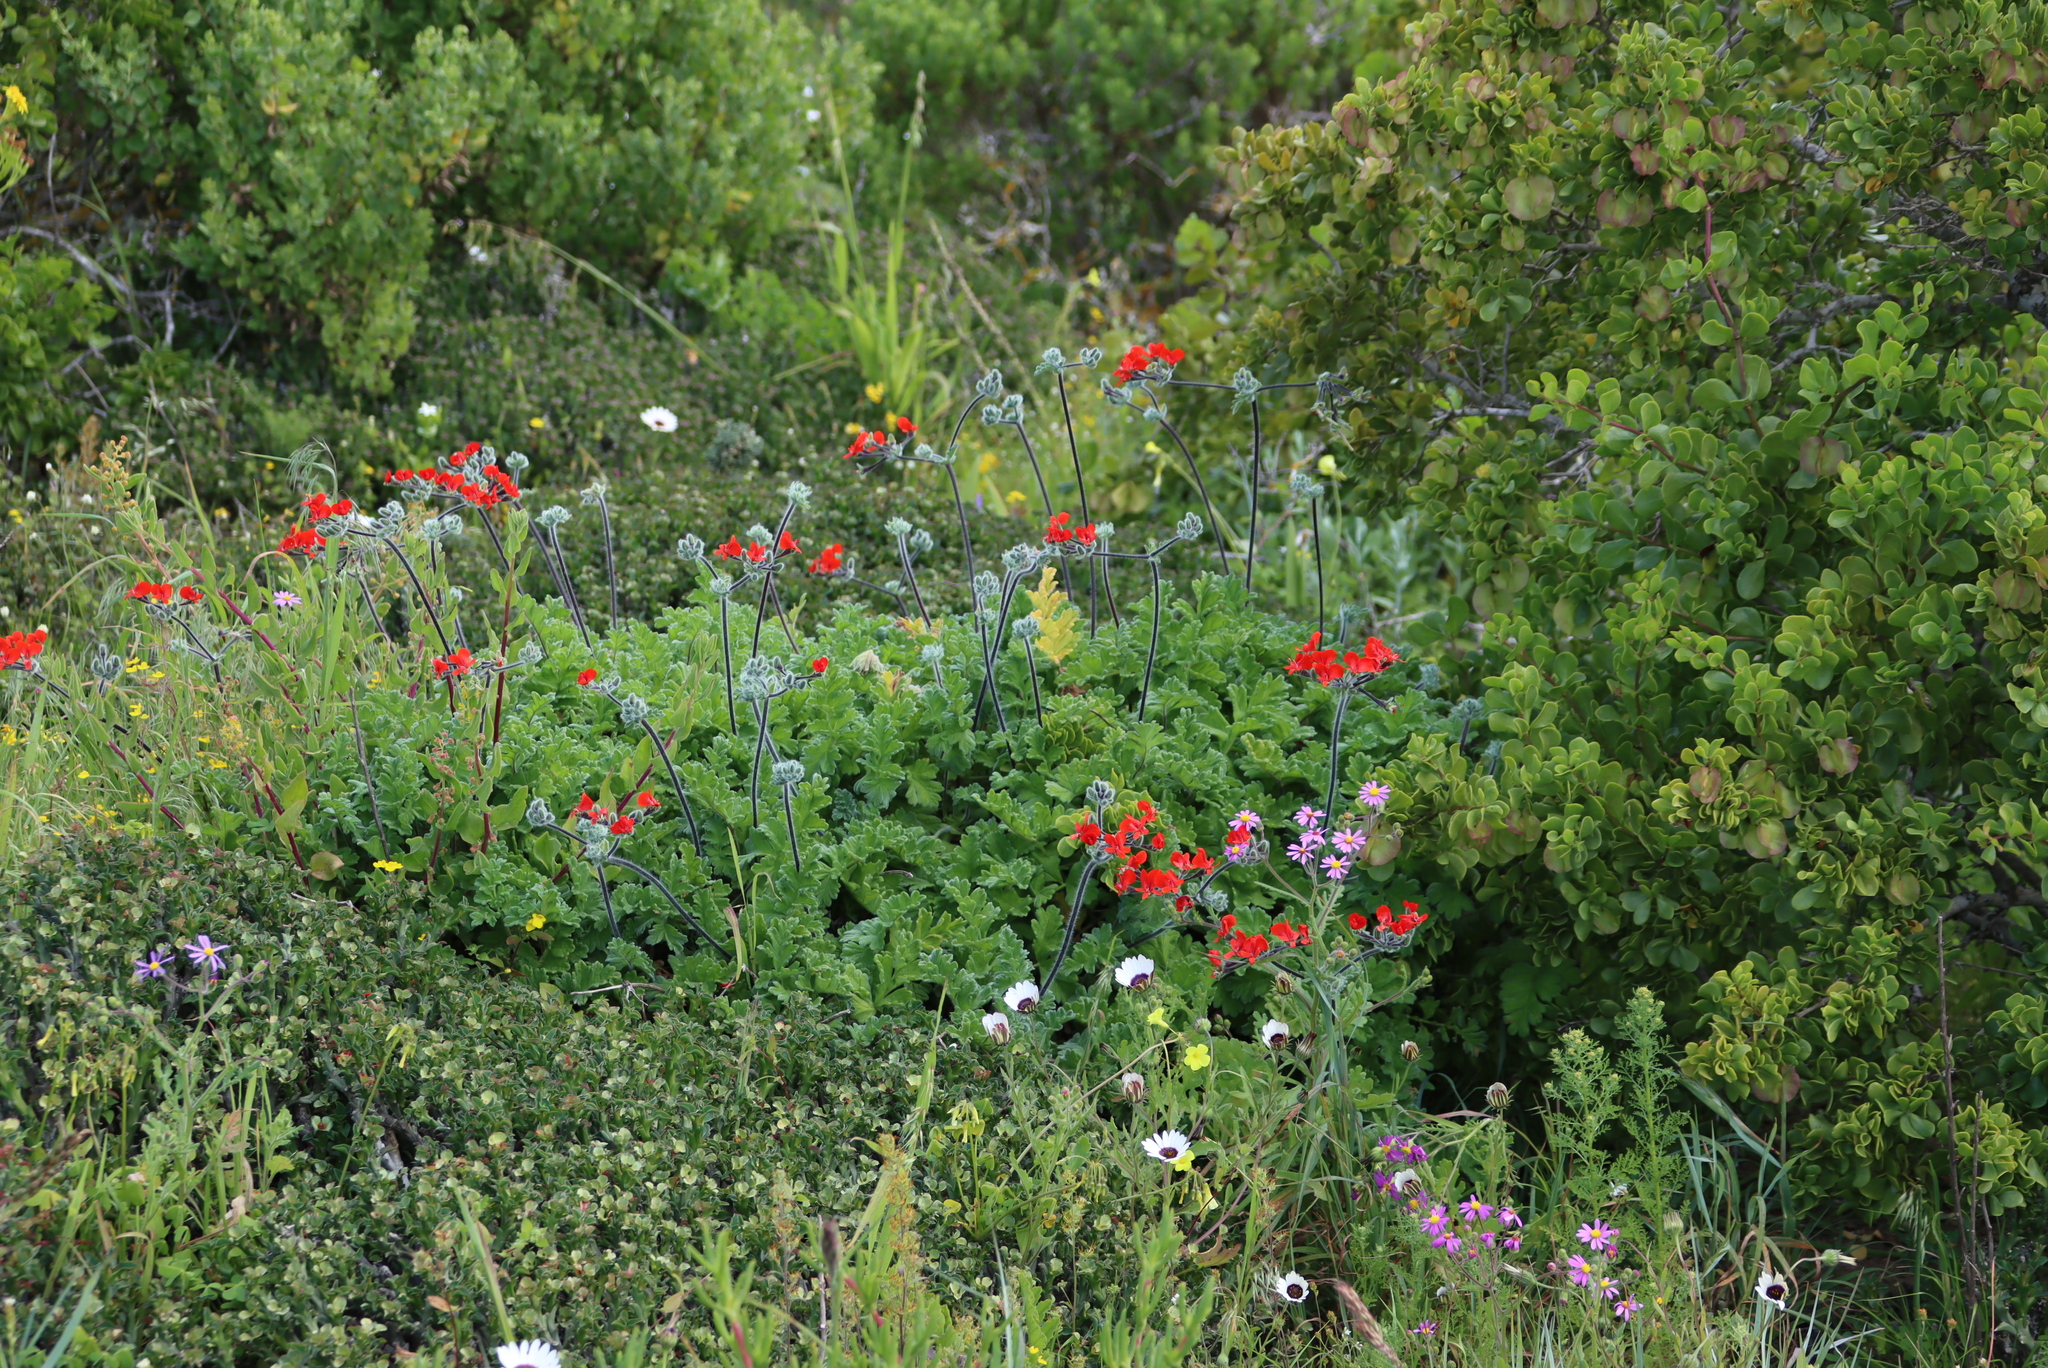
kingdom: Plantae
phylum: Tracheophyta
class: Magnoliopsida
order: Geraniales
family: Geraniaceae
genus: Pelargonium
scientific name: Pelargonium fulgidum
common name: Celandine-leaf pelargonium
